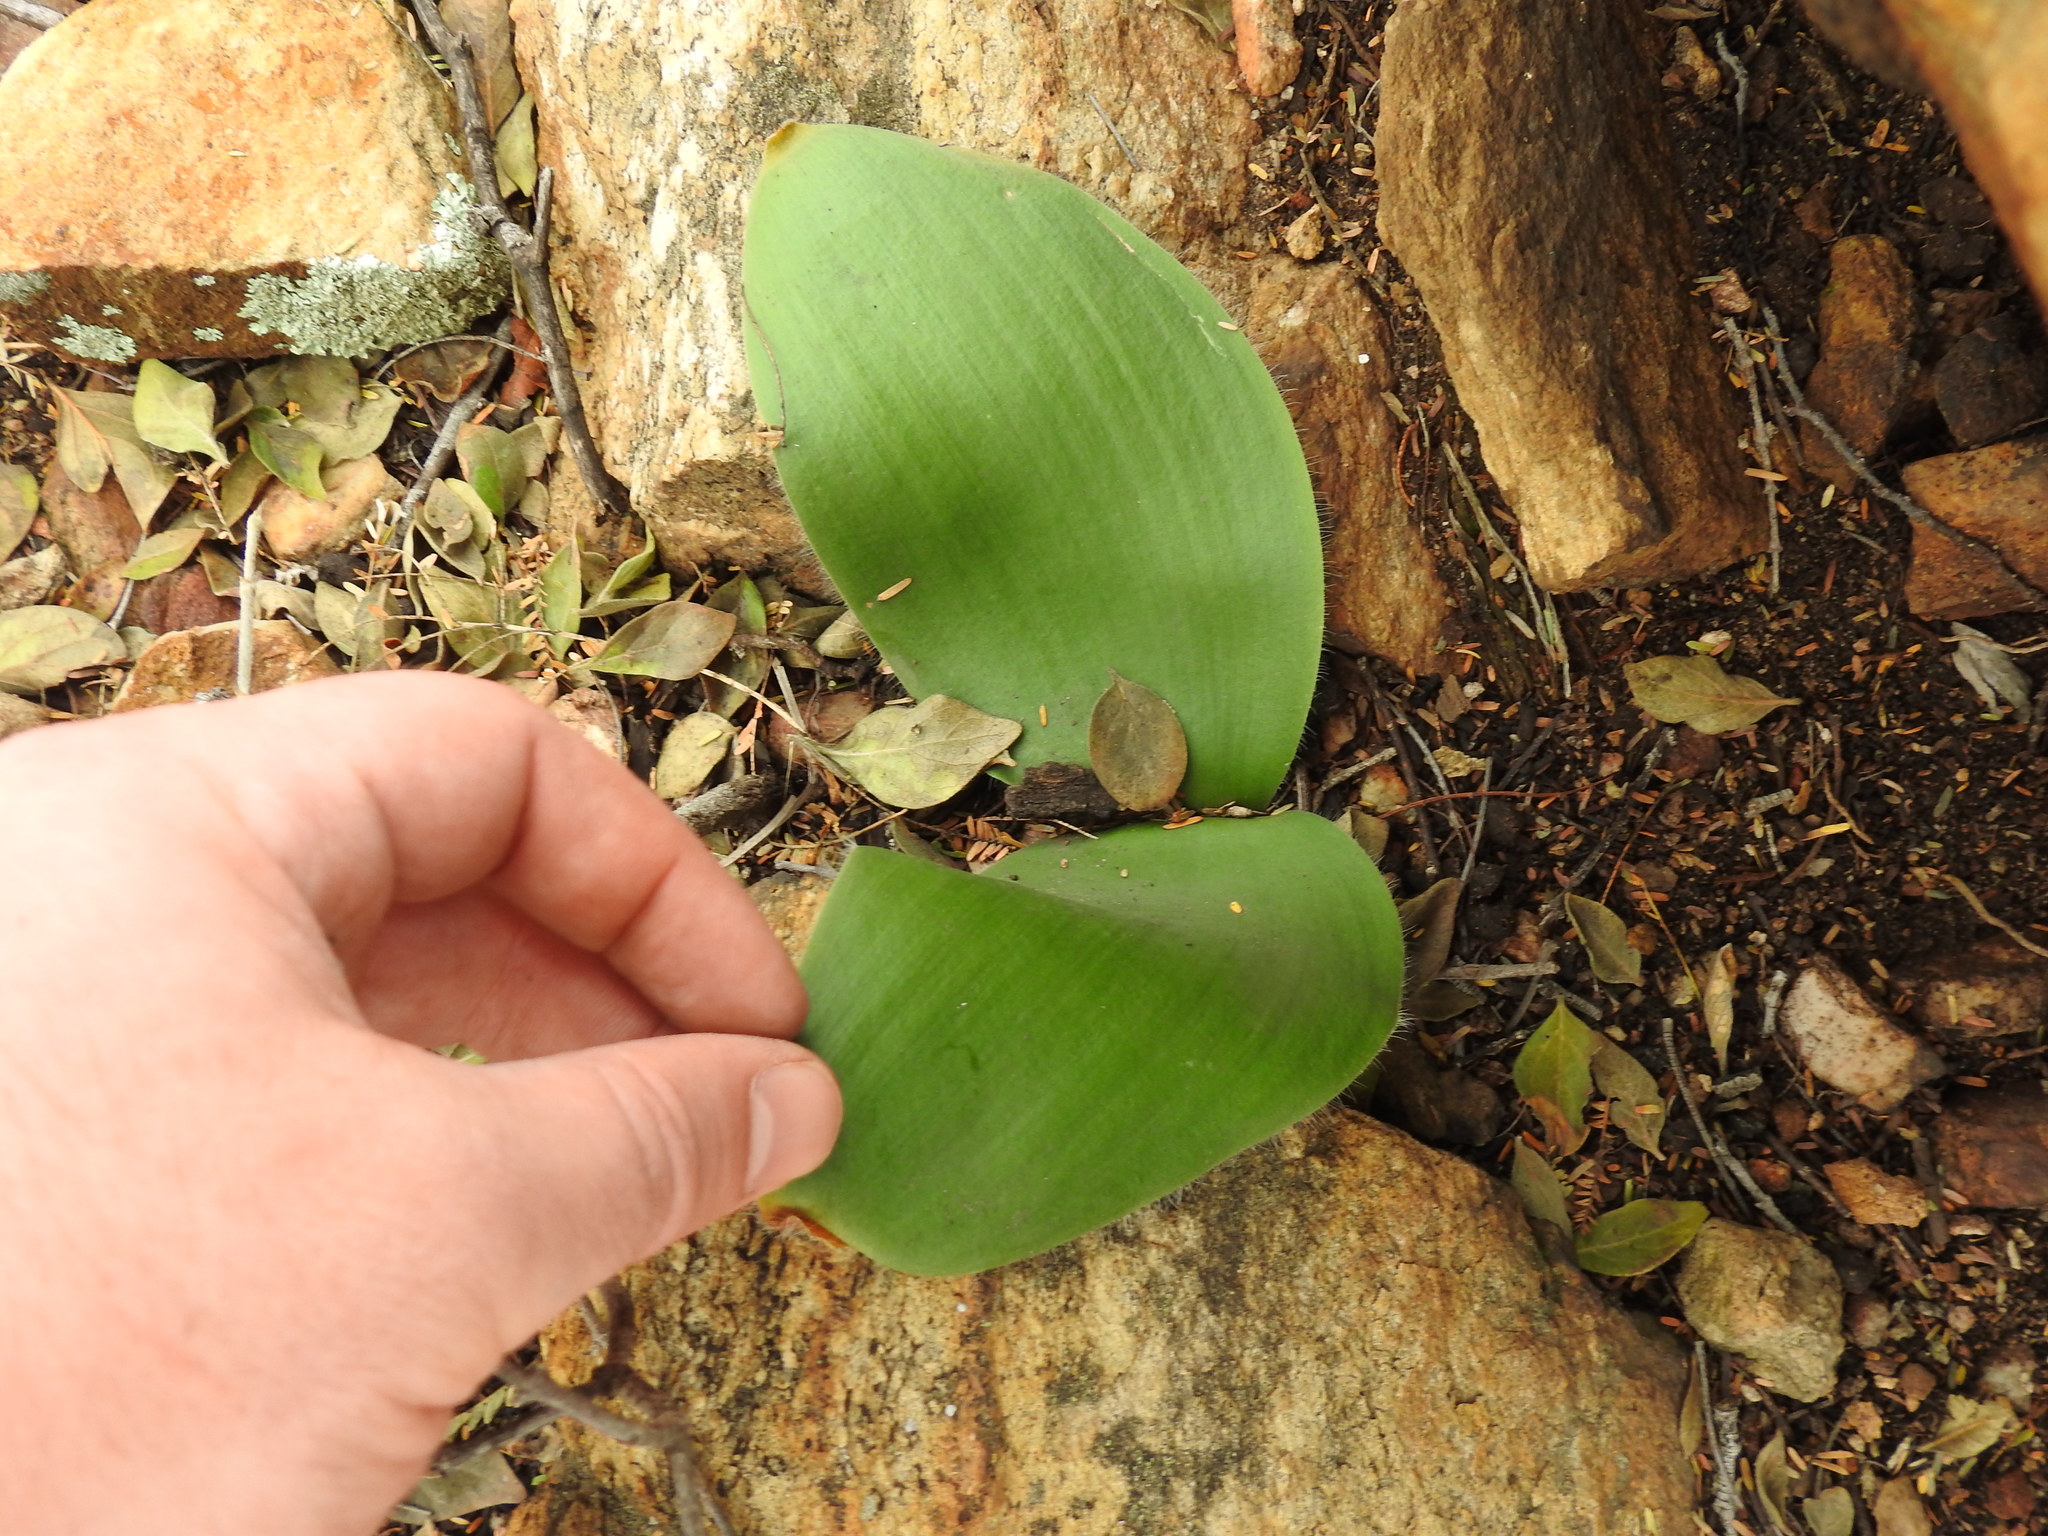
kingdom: Plantae
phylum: Tracheophyta
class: Liliopsida
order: Asparagales
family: Amaryllidaceae
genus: Haemanthus
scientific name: Haemanthus humilis
